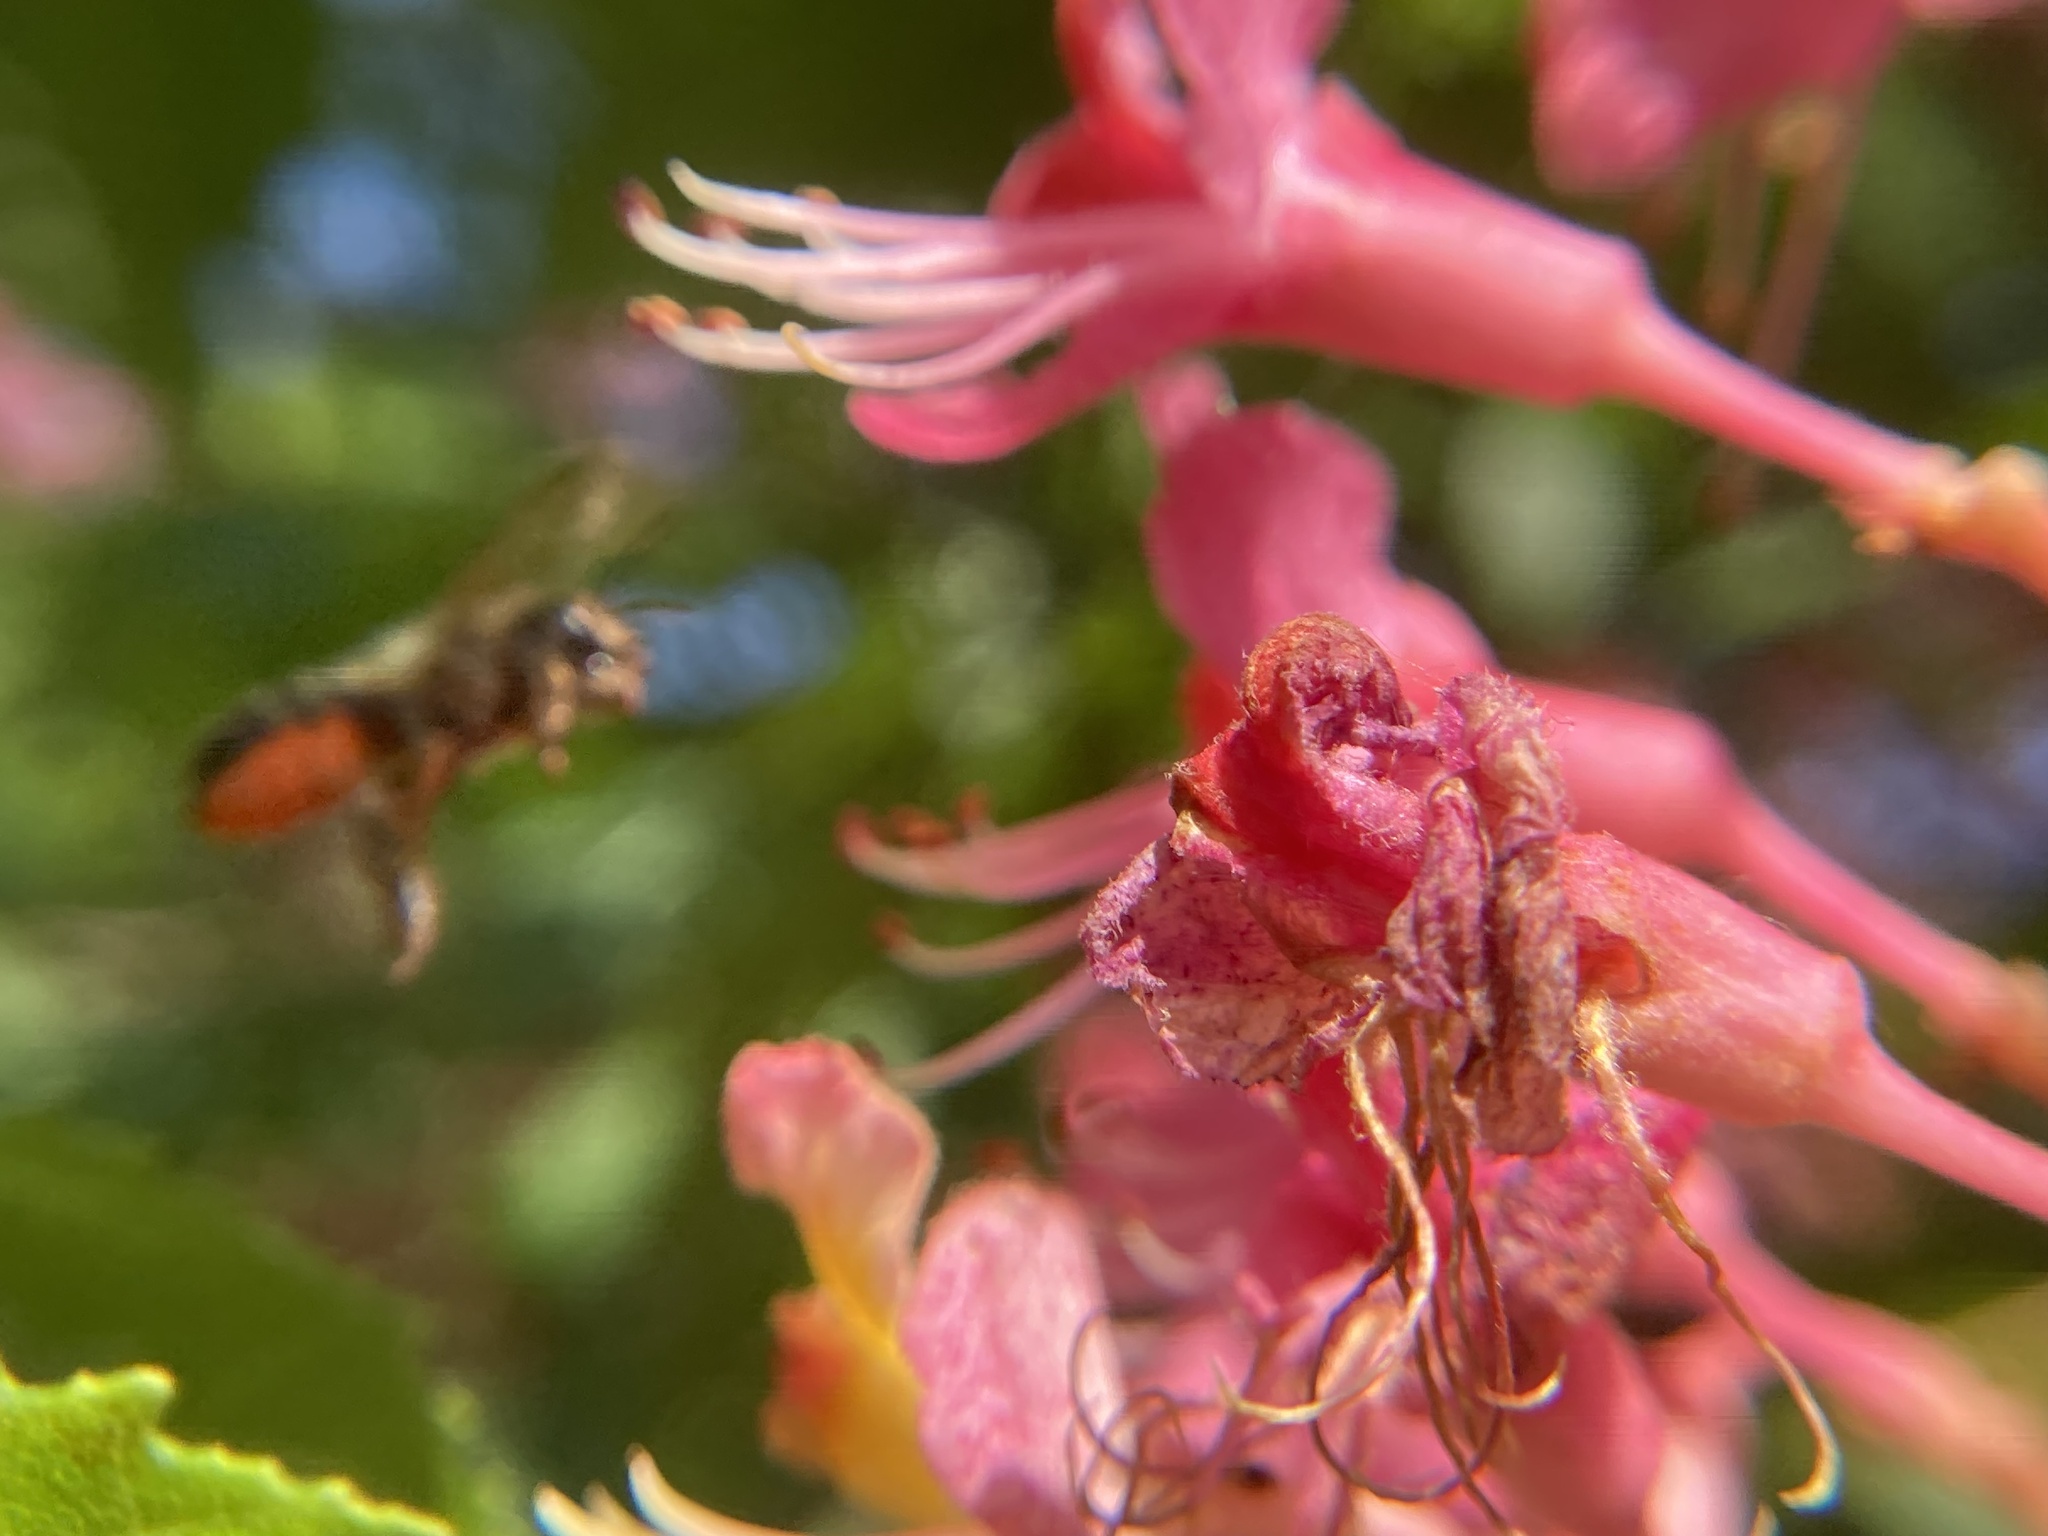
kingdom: Animalia
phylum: Arthropoda
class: Insecta
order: Hymenoptera
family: Megachilidae
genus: Osmia
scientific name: Osmia cornifrons
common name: Horn-faced bee
